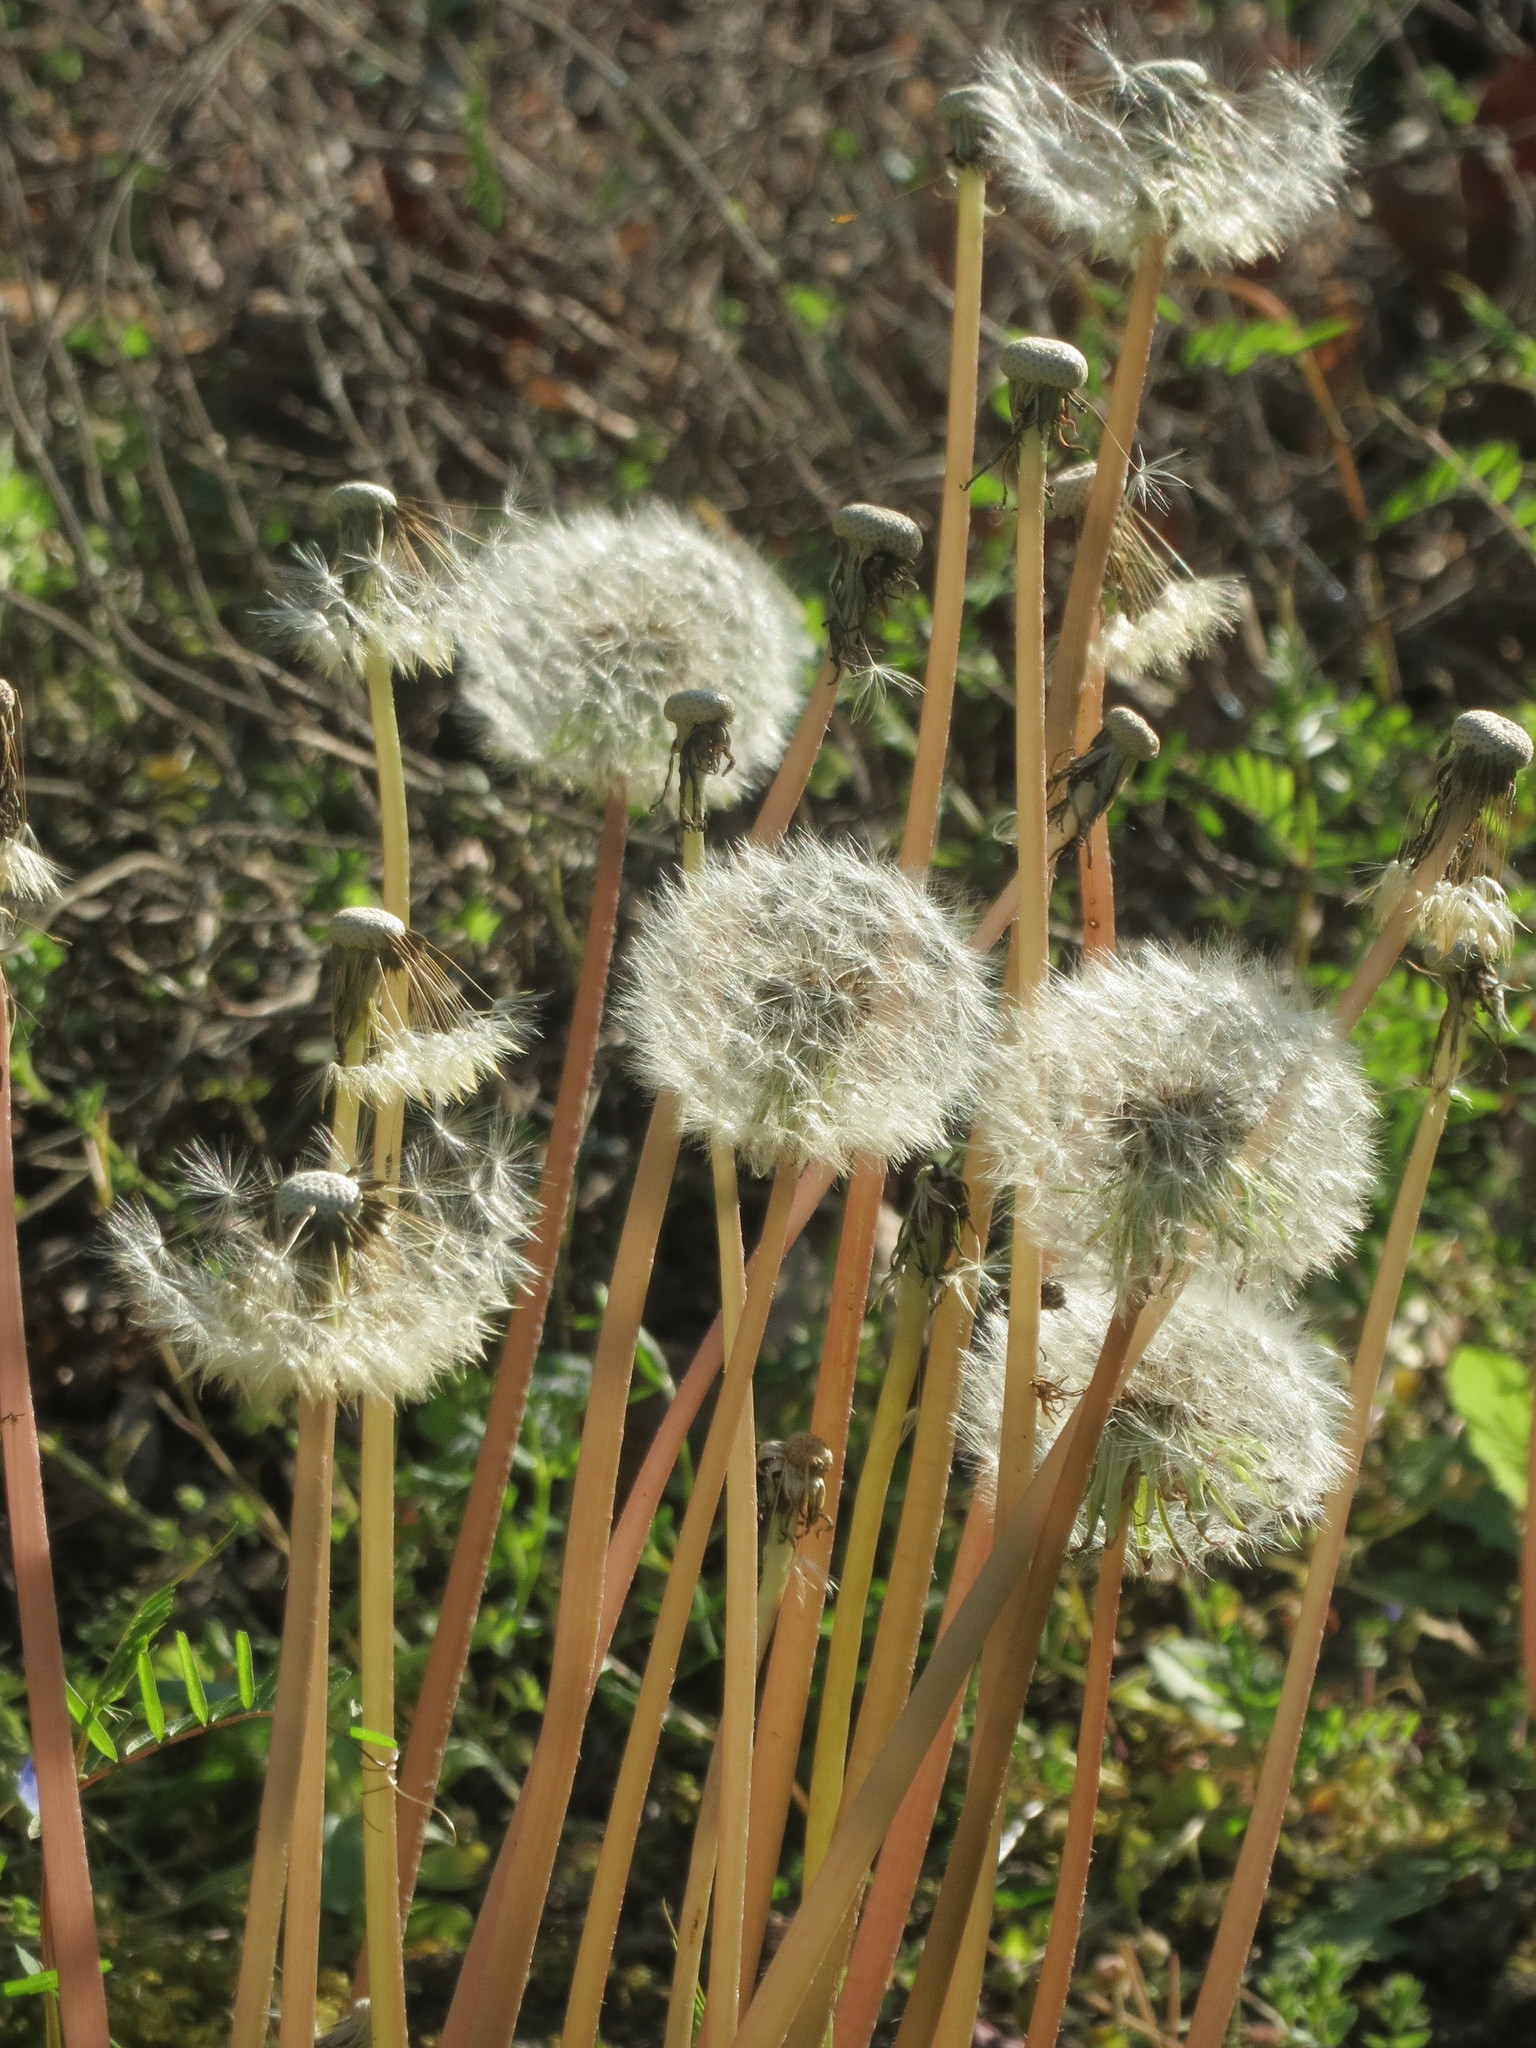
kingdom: Plantae
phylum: Tracheophyta
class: Magnoliopsida
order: Asterales
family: Asteraceae
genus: Taraxacum
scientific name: Taraxacum officinale
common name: Common dandelion
